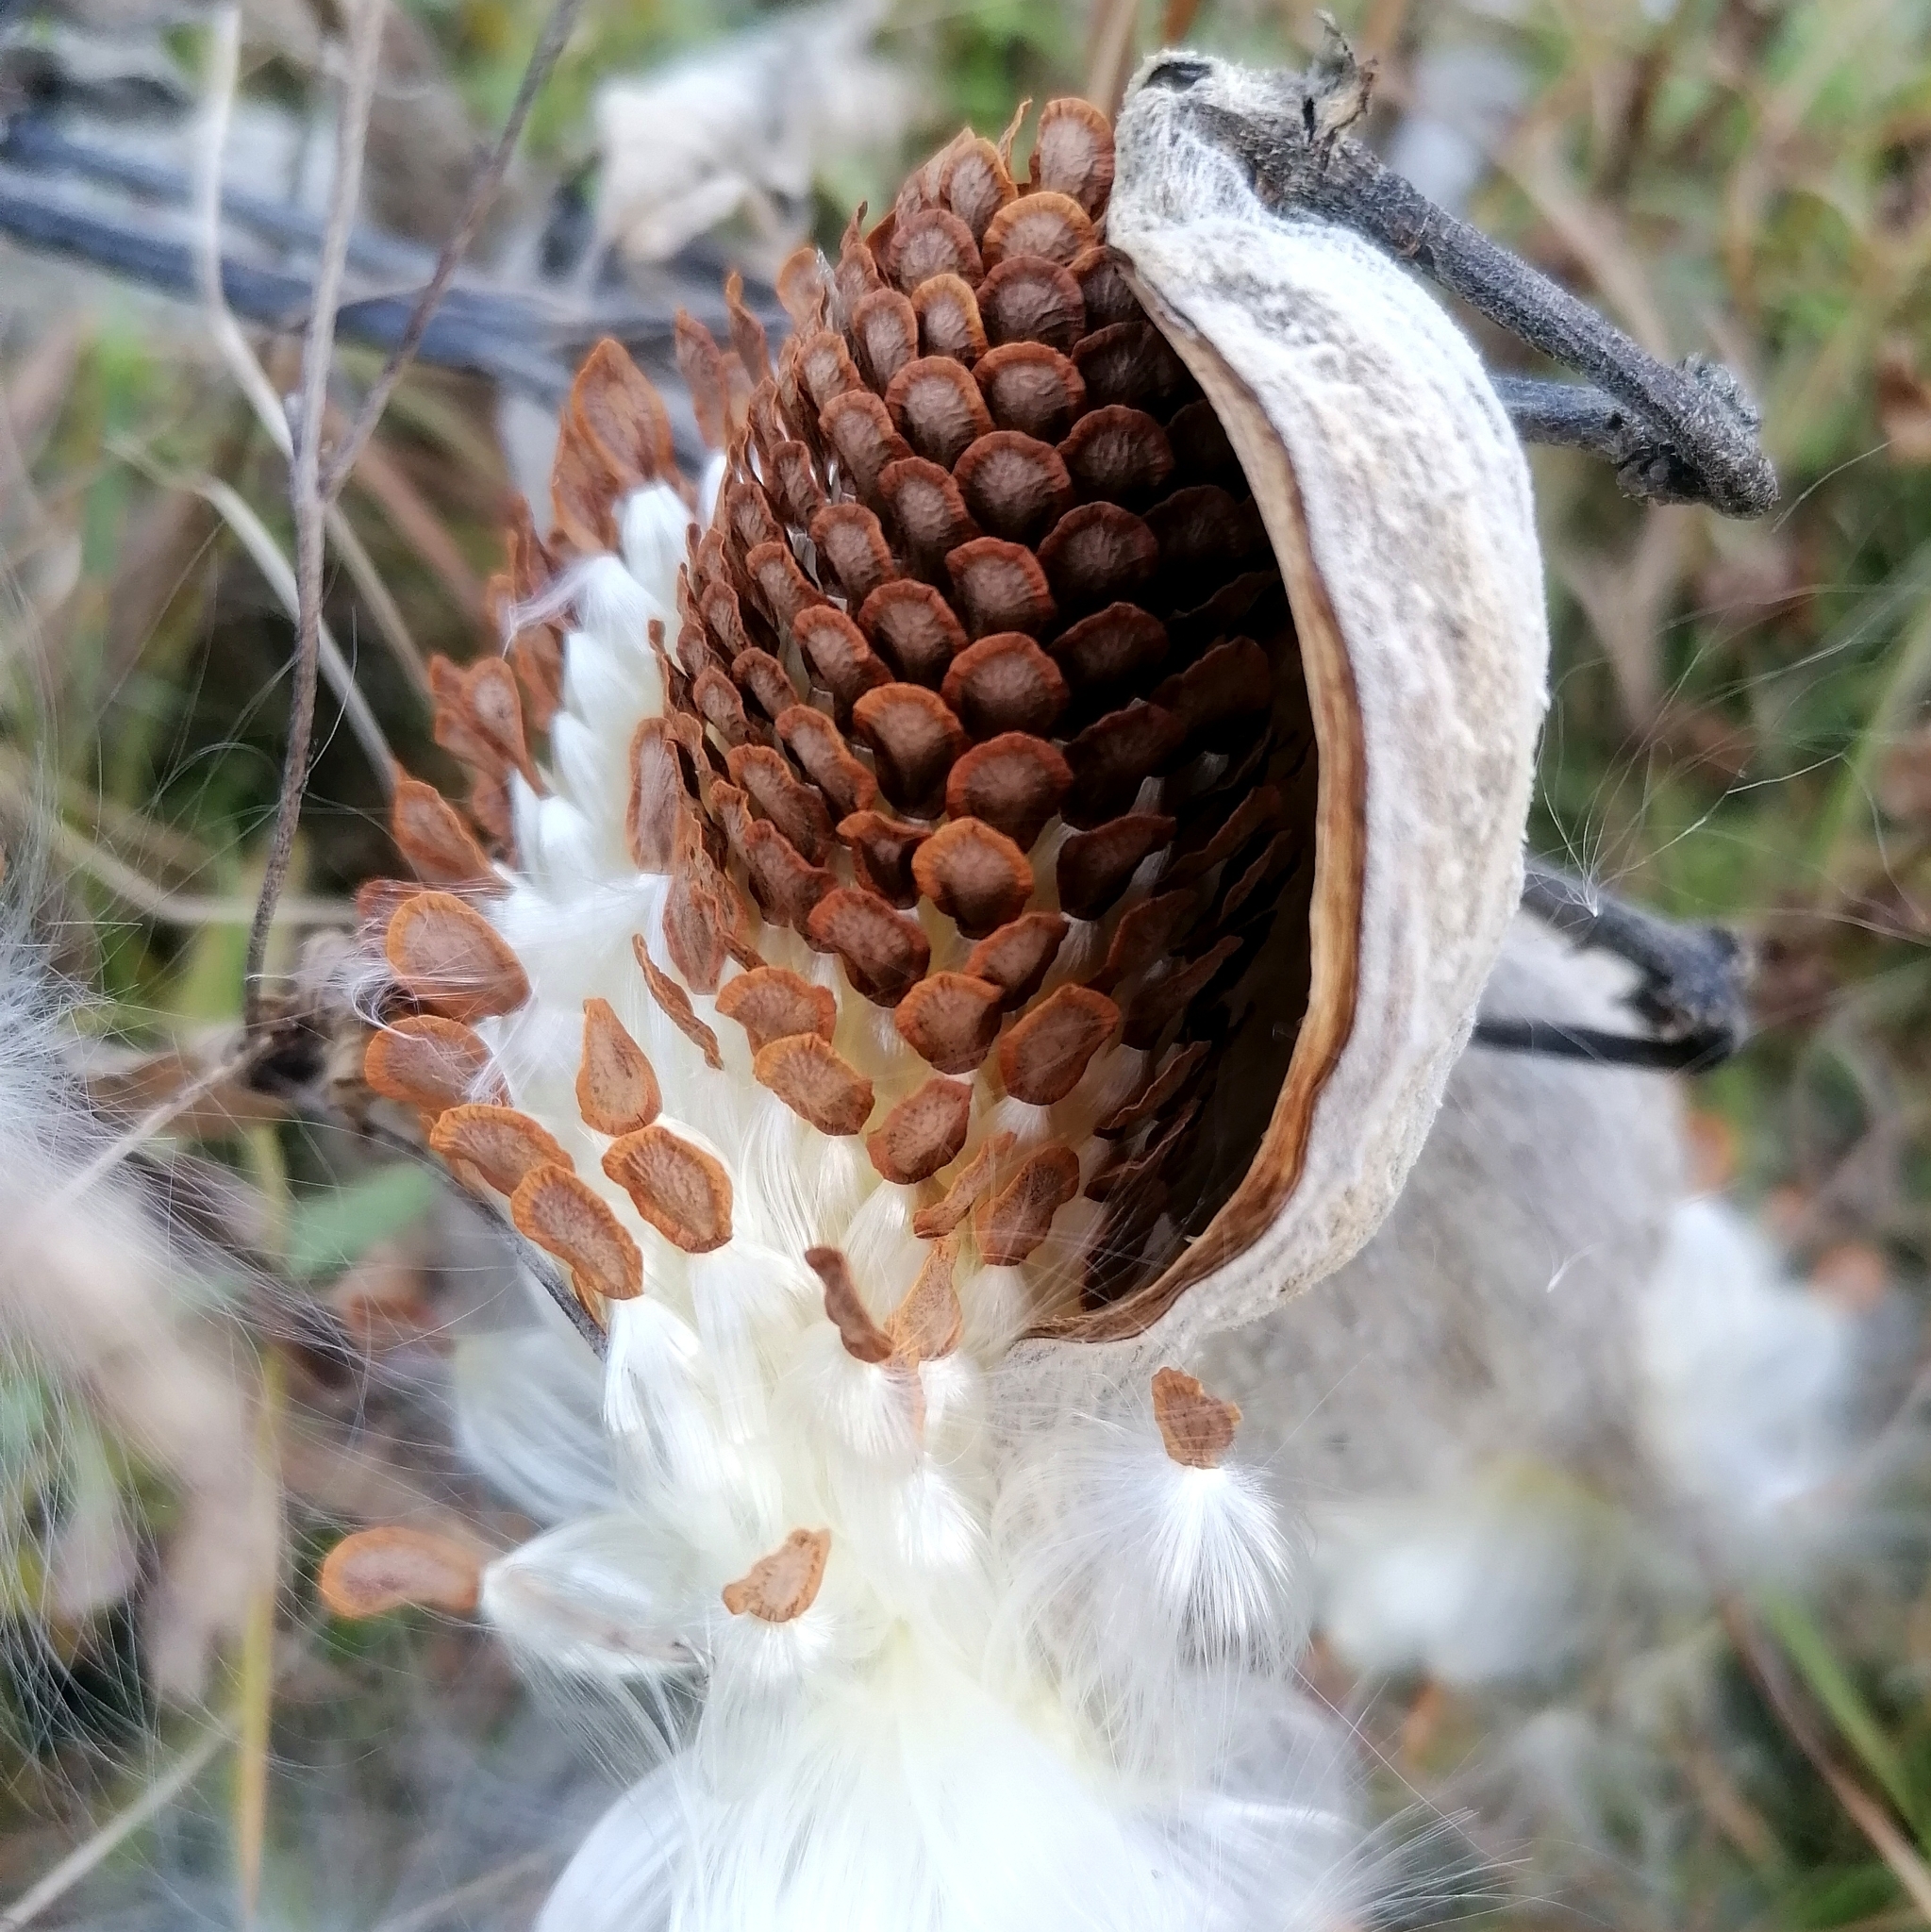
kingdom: Plantae
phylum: Tracheophyta
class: Magnoliopsida
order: Gentianales
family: Apocynaceae
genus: Asclepias
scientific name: Asclepias syriaca
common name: Common milkweed
